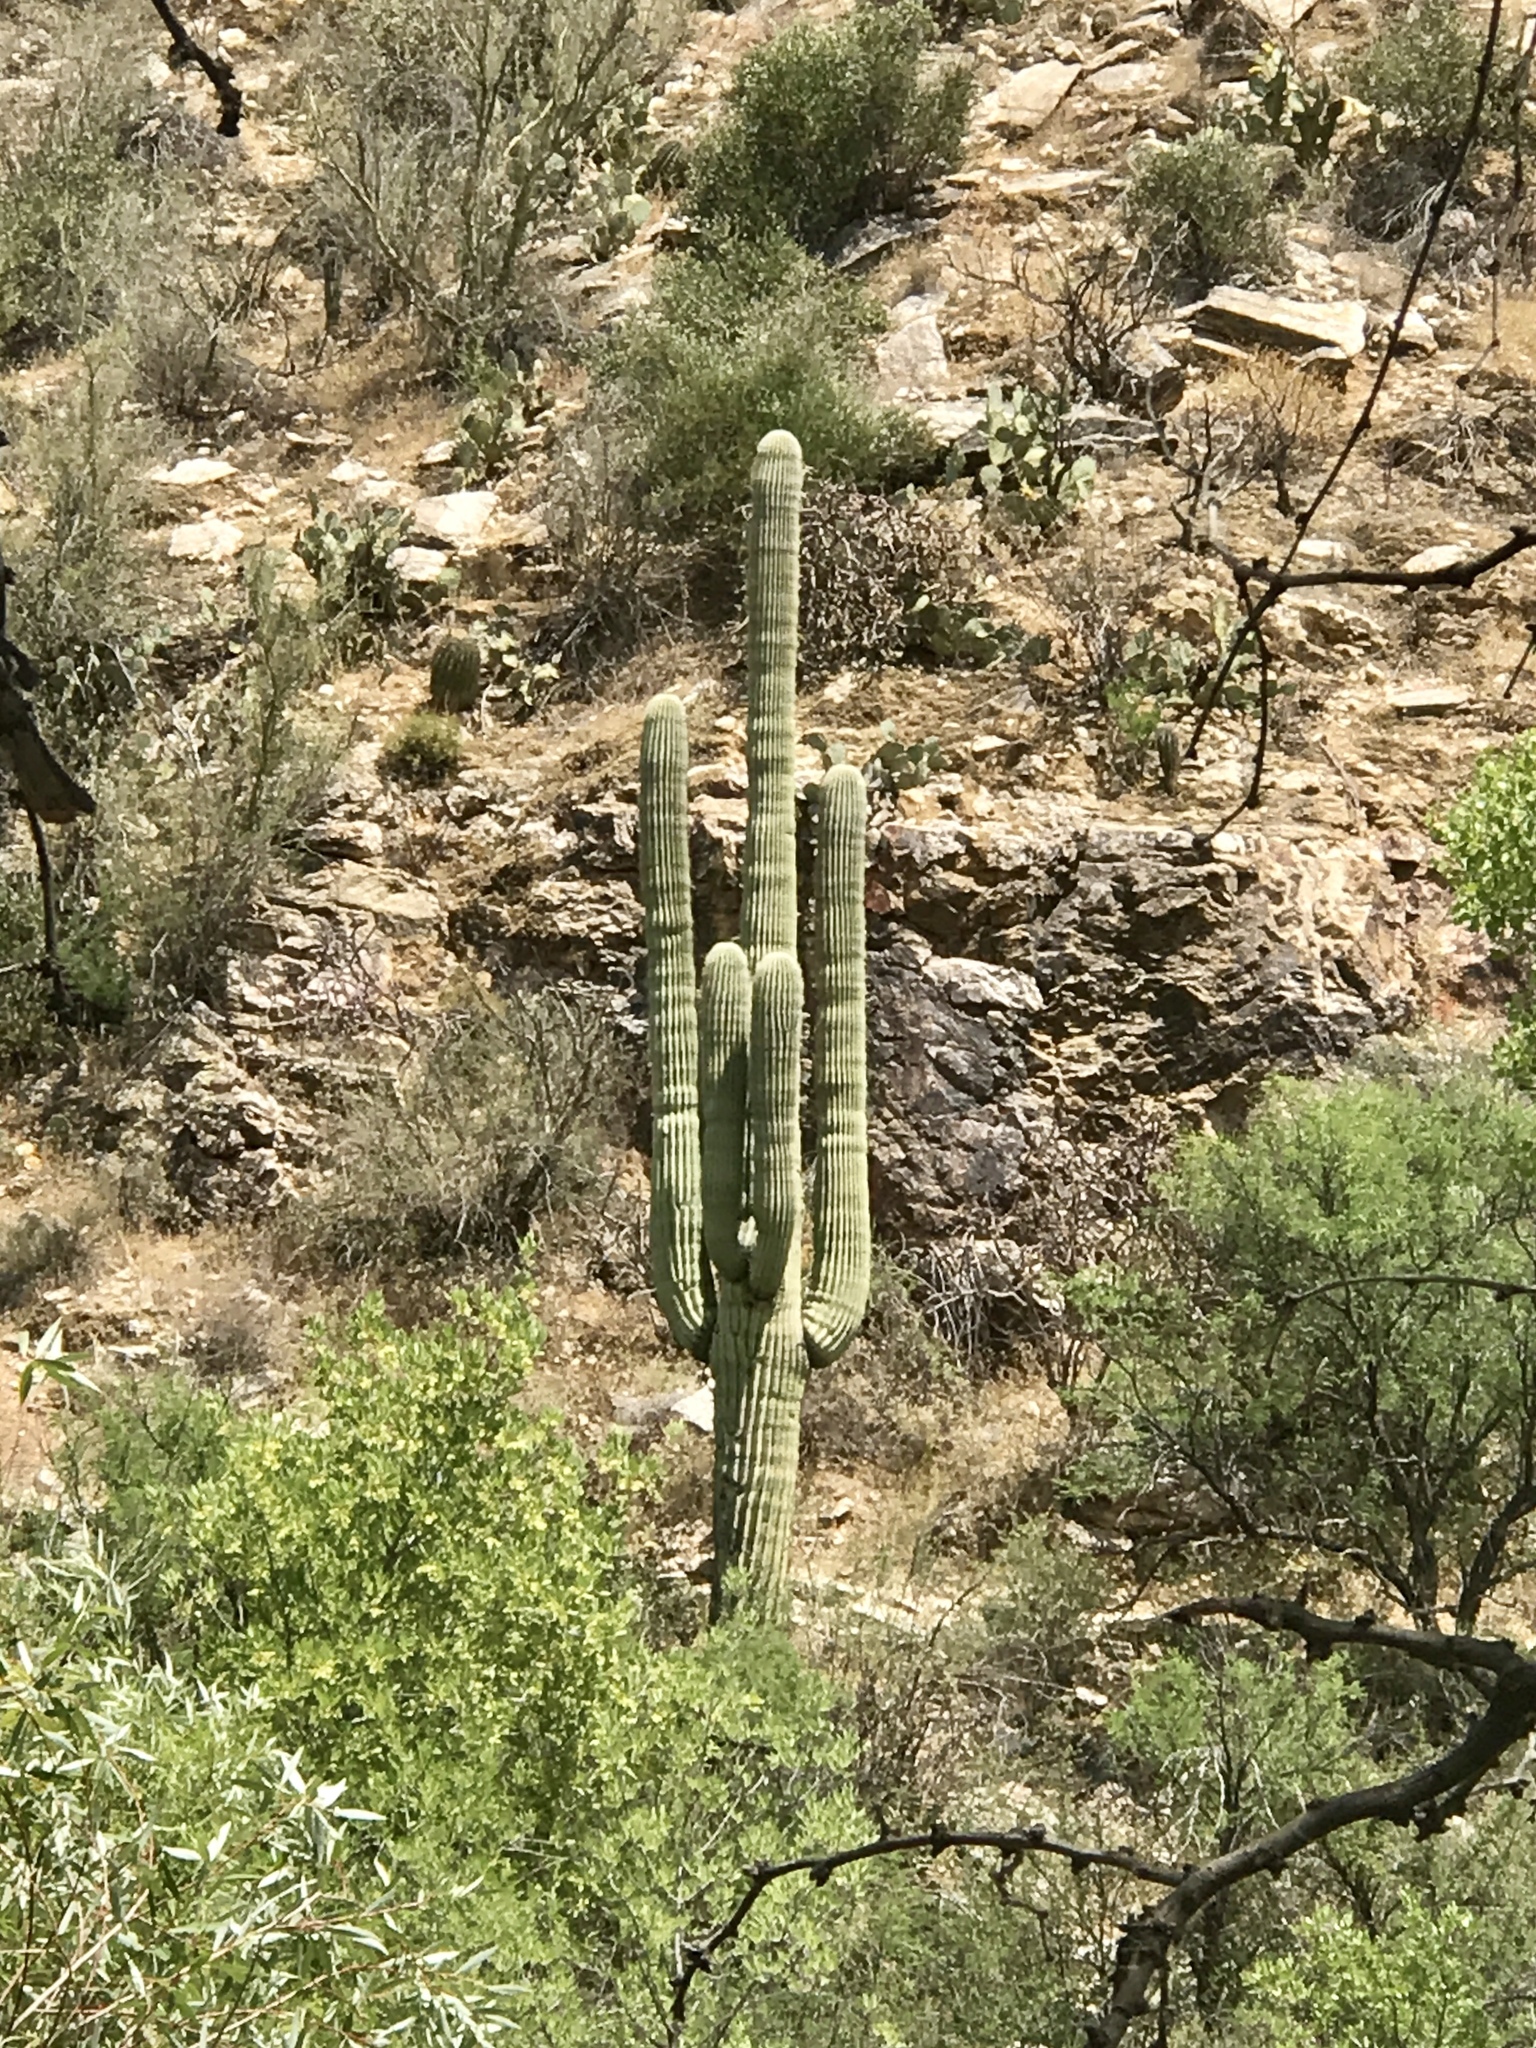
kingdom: Plantae
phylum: Tracheophyta
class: Magnoliopsida
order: Caryophyllales
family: Cactaceae
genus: Carnegiea
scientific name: Carnegiea gigantea
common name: Saguaro
